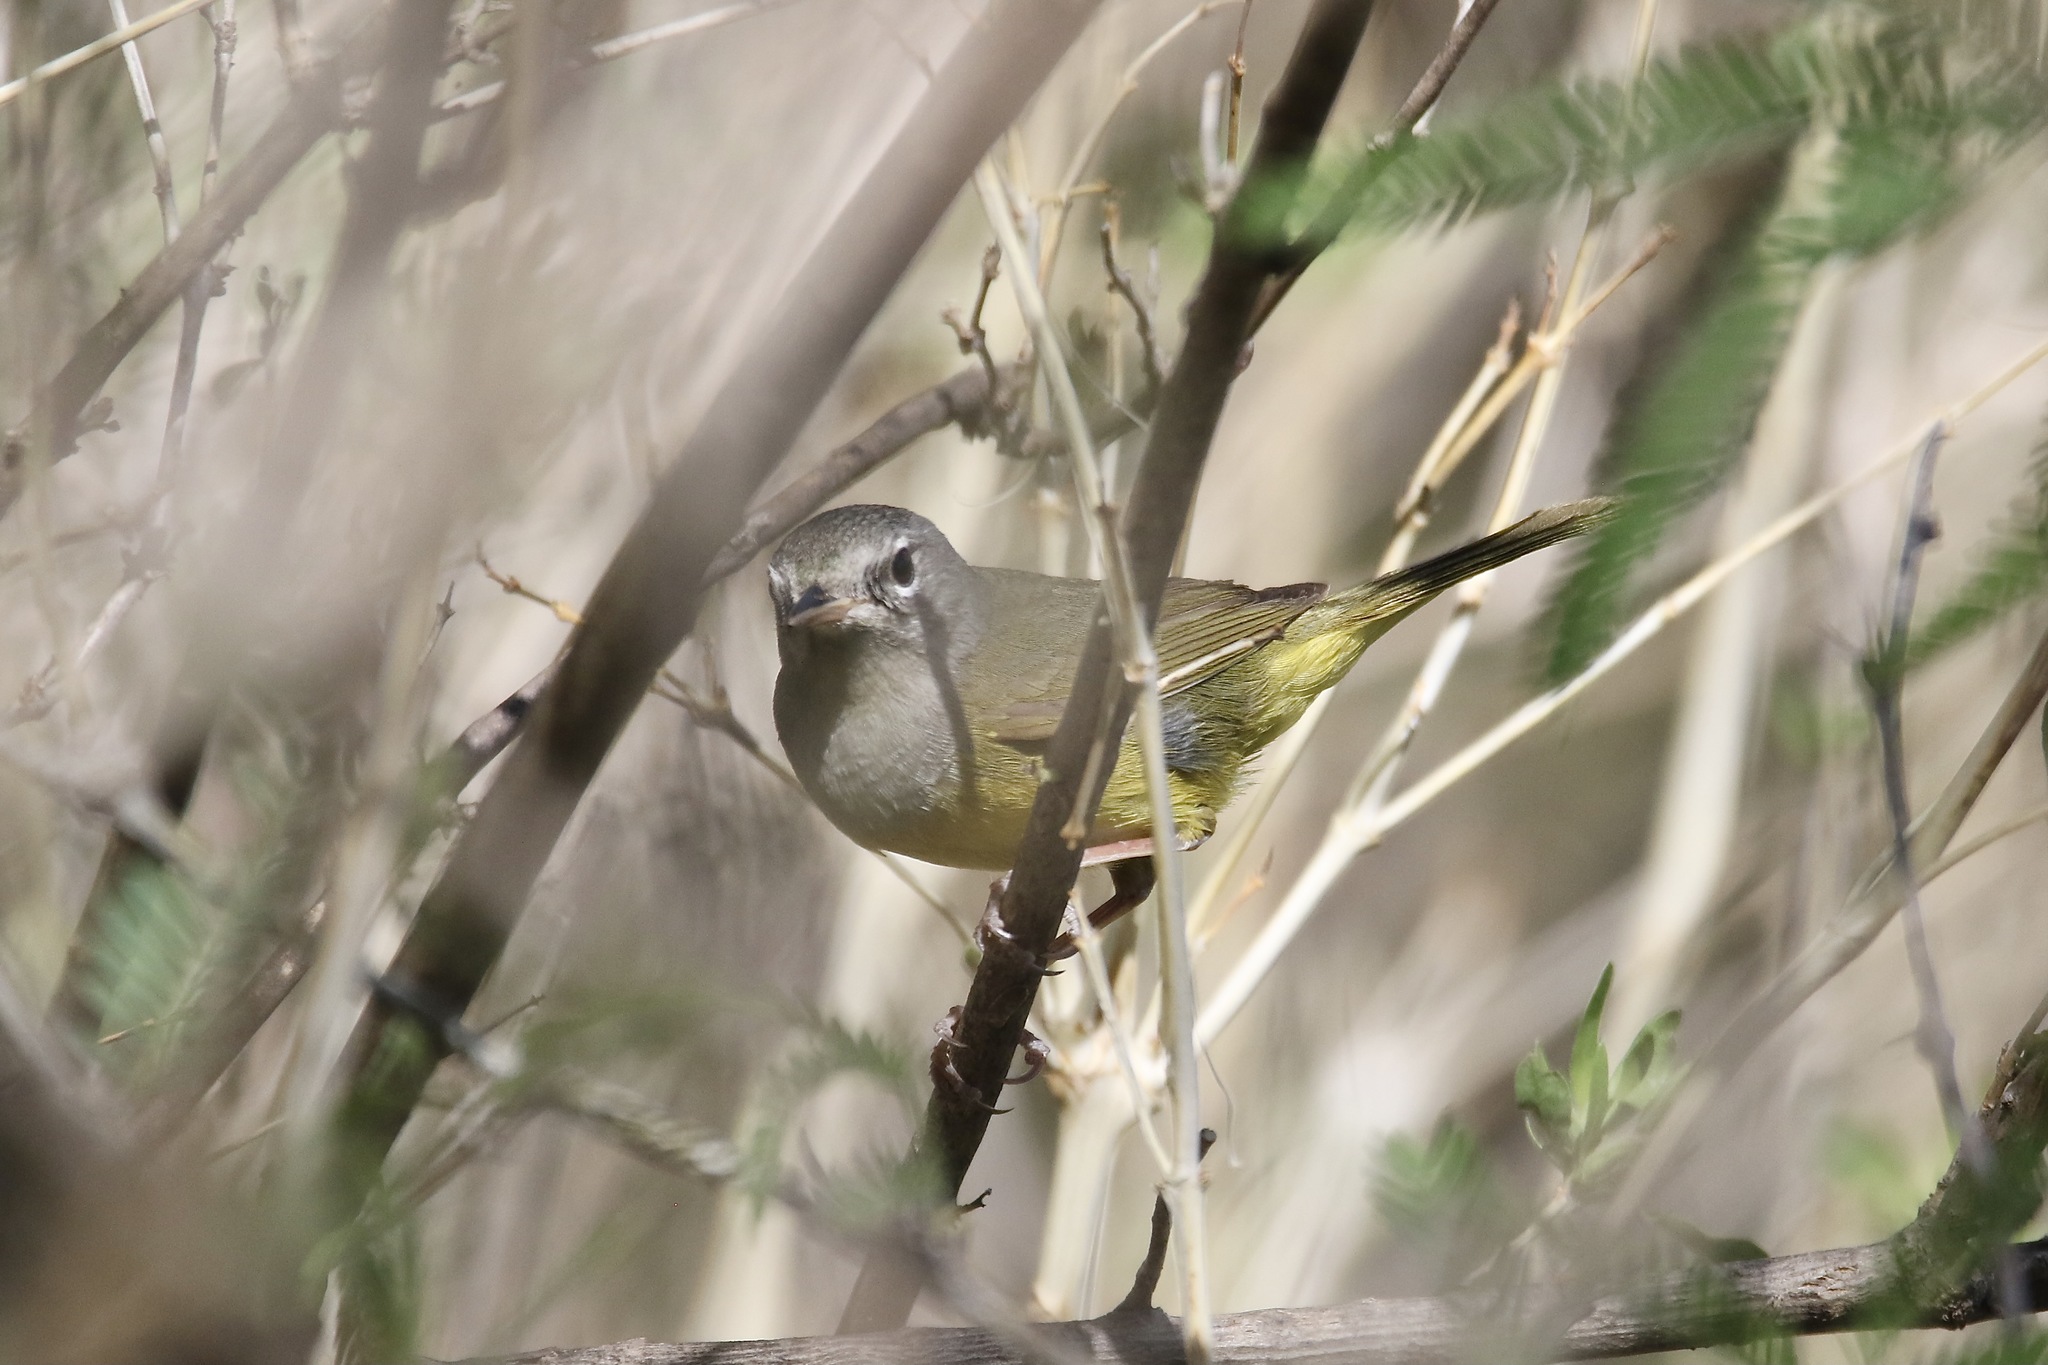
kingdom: Animalia
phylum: Chordata
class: Aves
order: Passeriformes
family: Parulidae
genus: Geothlypis
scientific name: Geothlypis tolmiei
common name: Macgillivray's warbler
